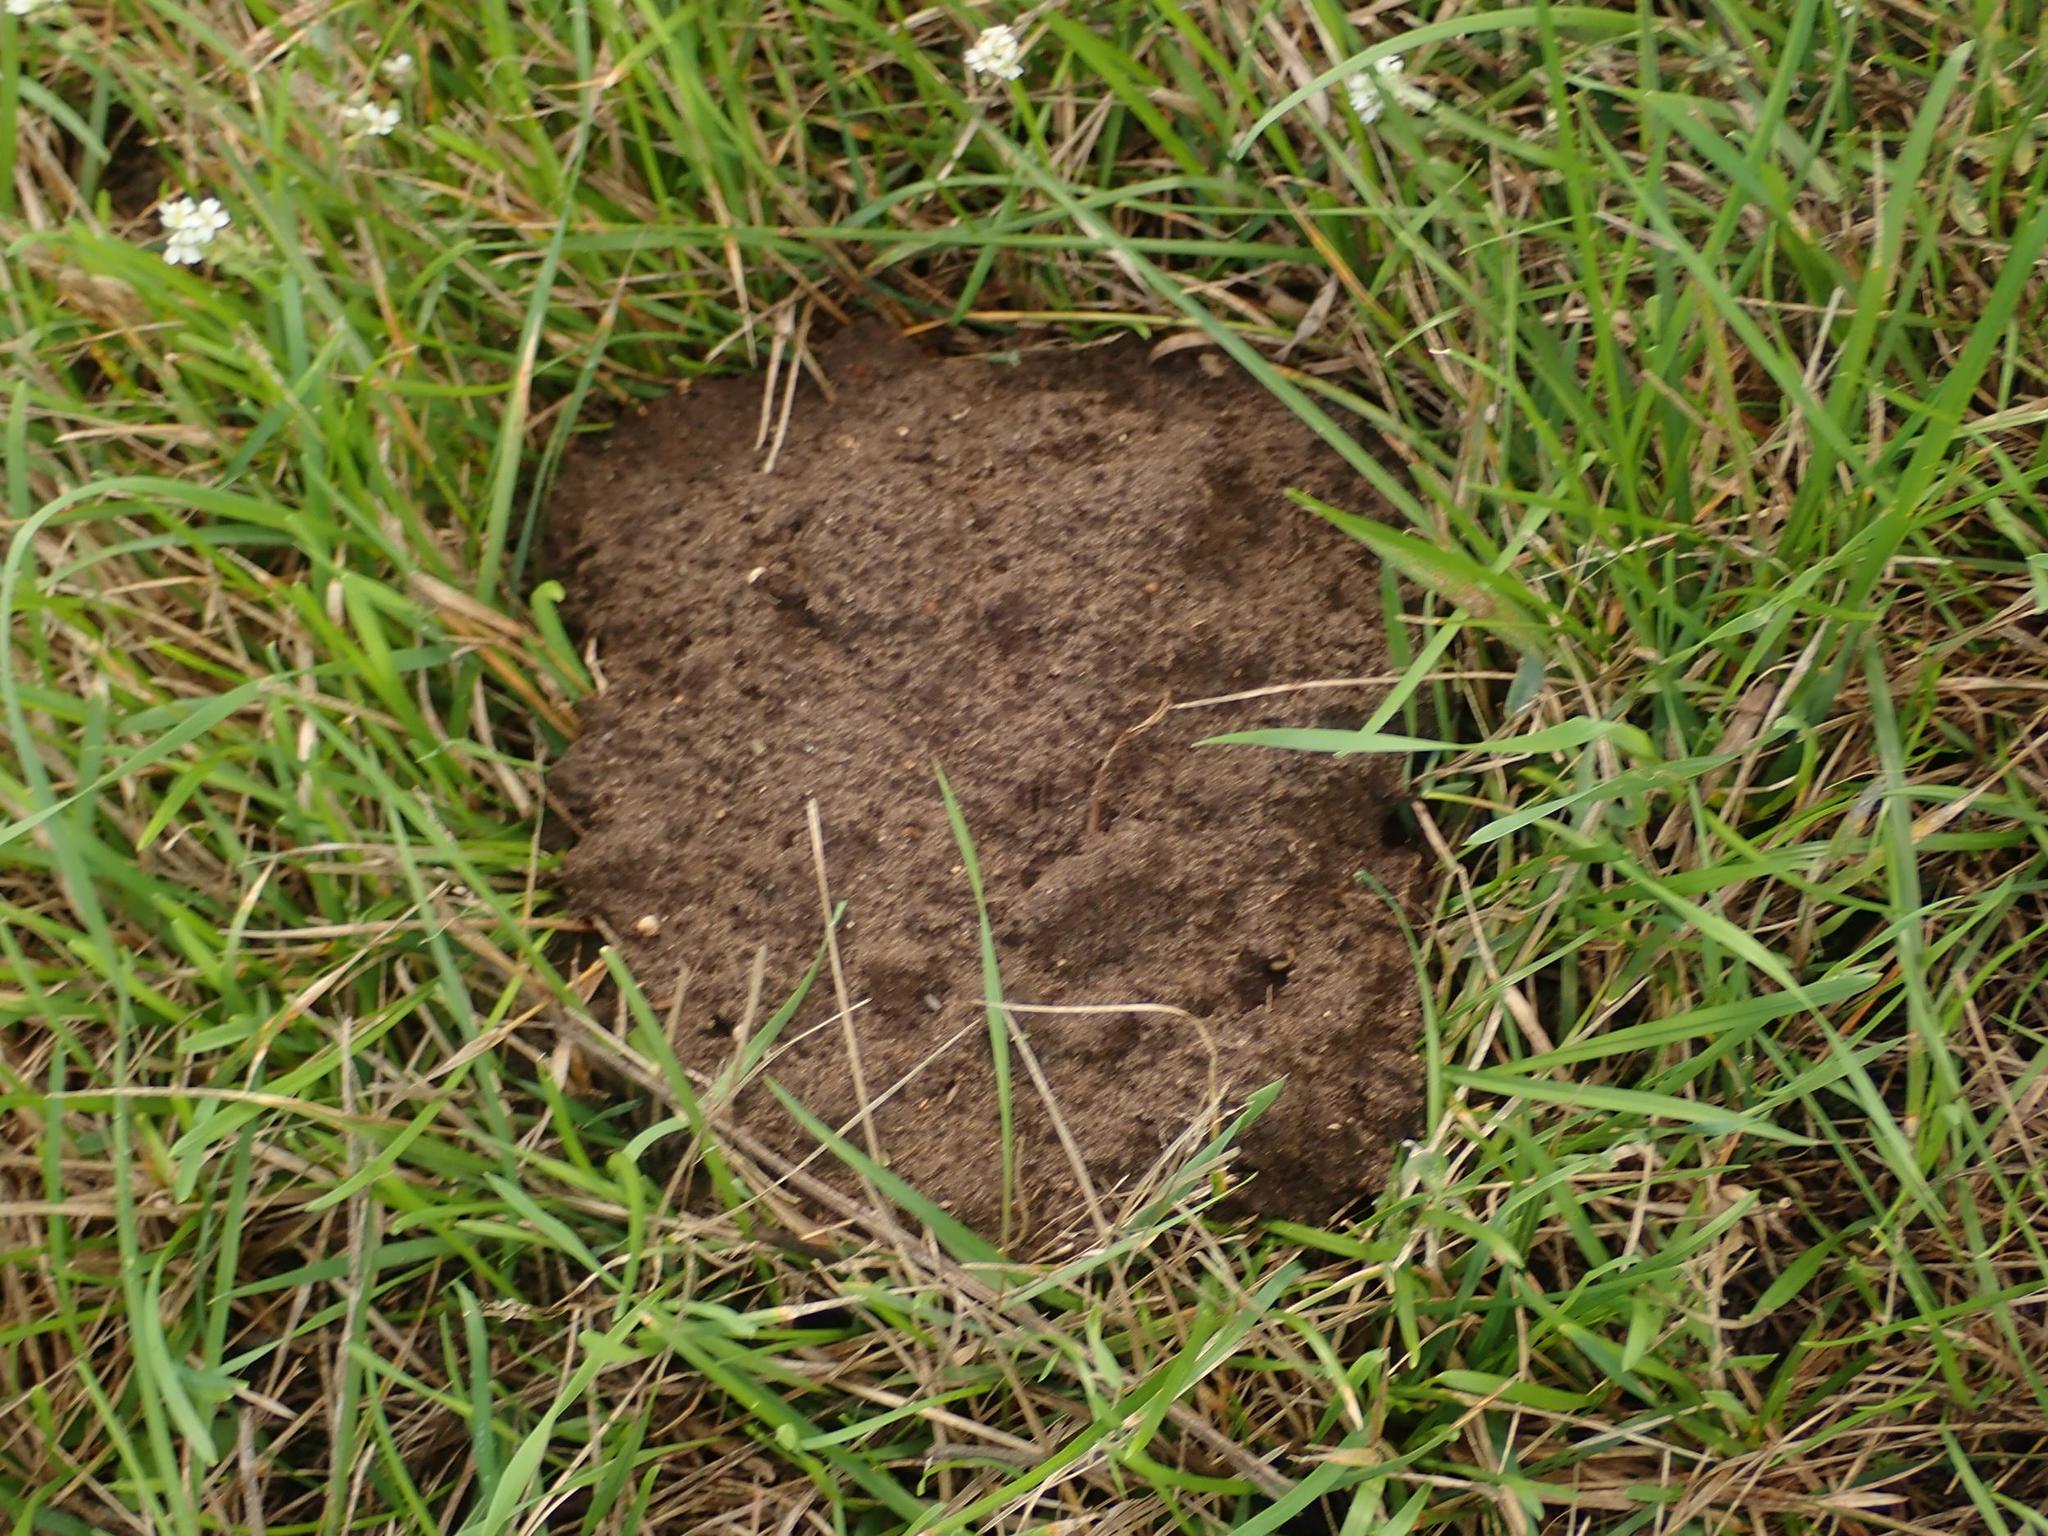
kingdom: Animalia
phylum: Chordata
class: Mammalia
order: Soricomorpha
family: Talpidae
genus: Talpa
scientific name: Talpa europaea
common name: European mole
